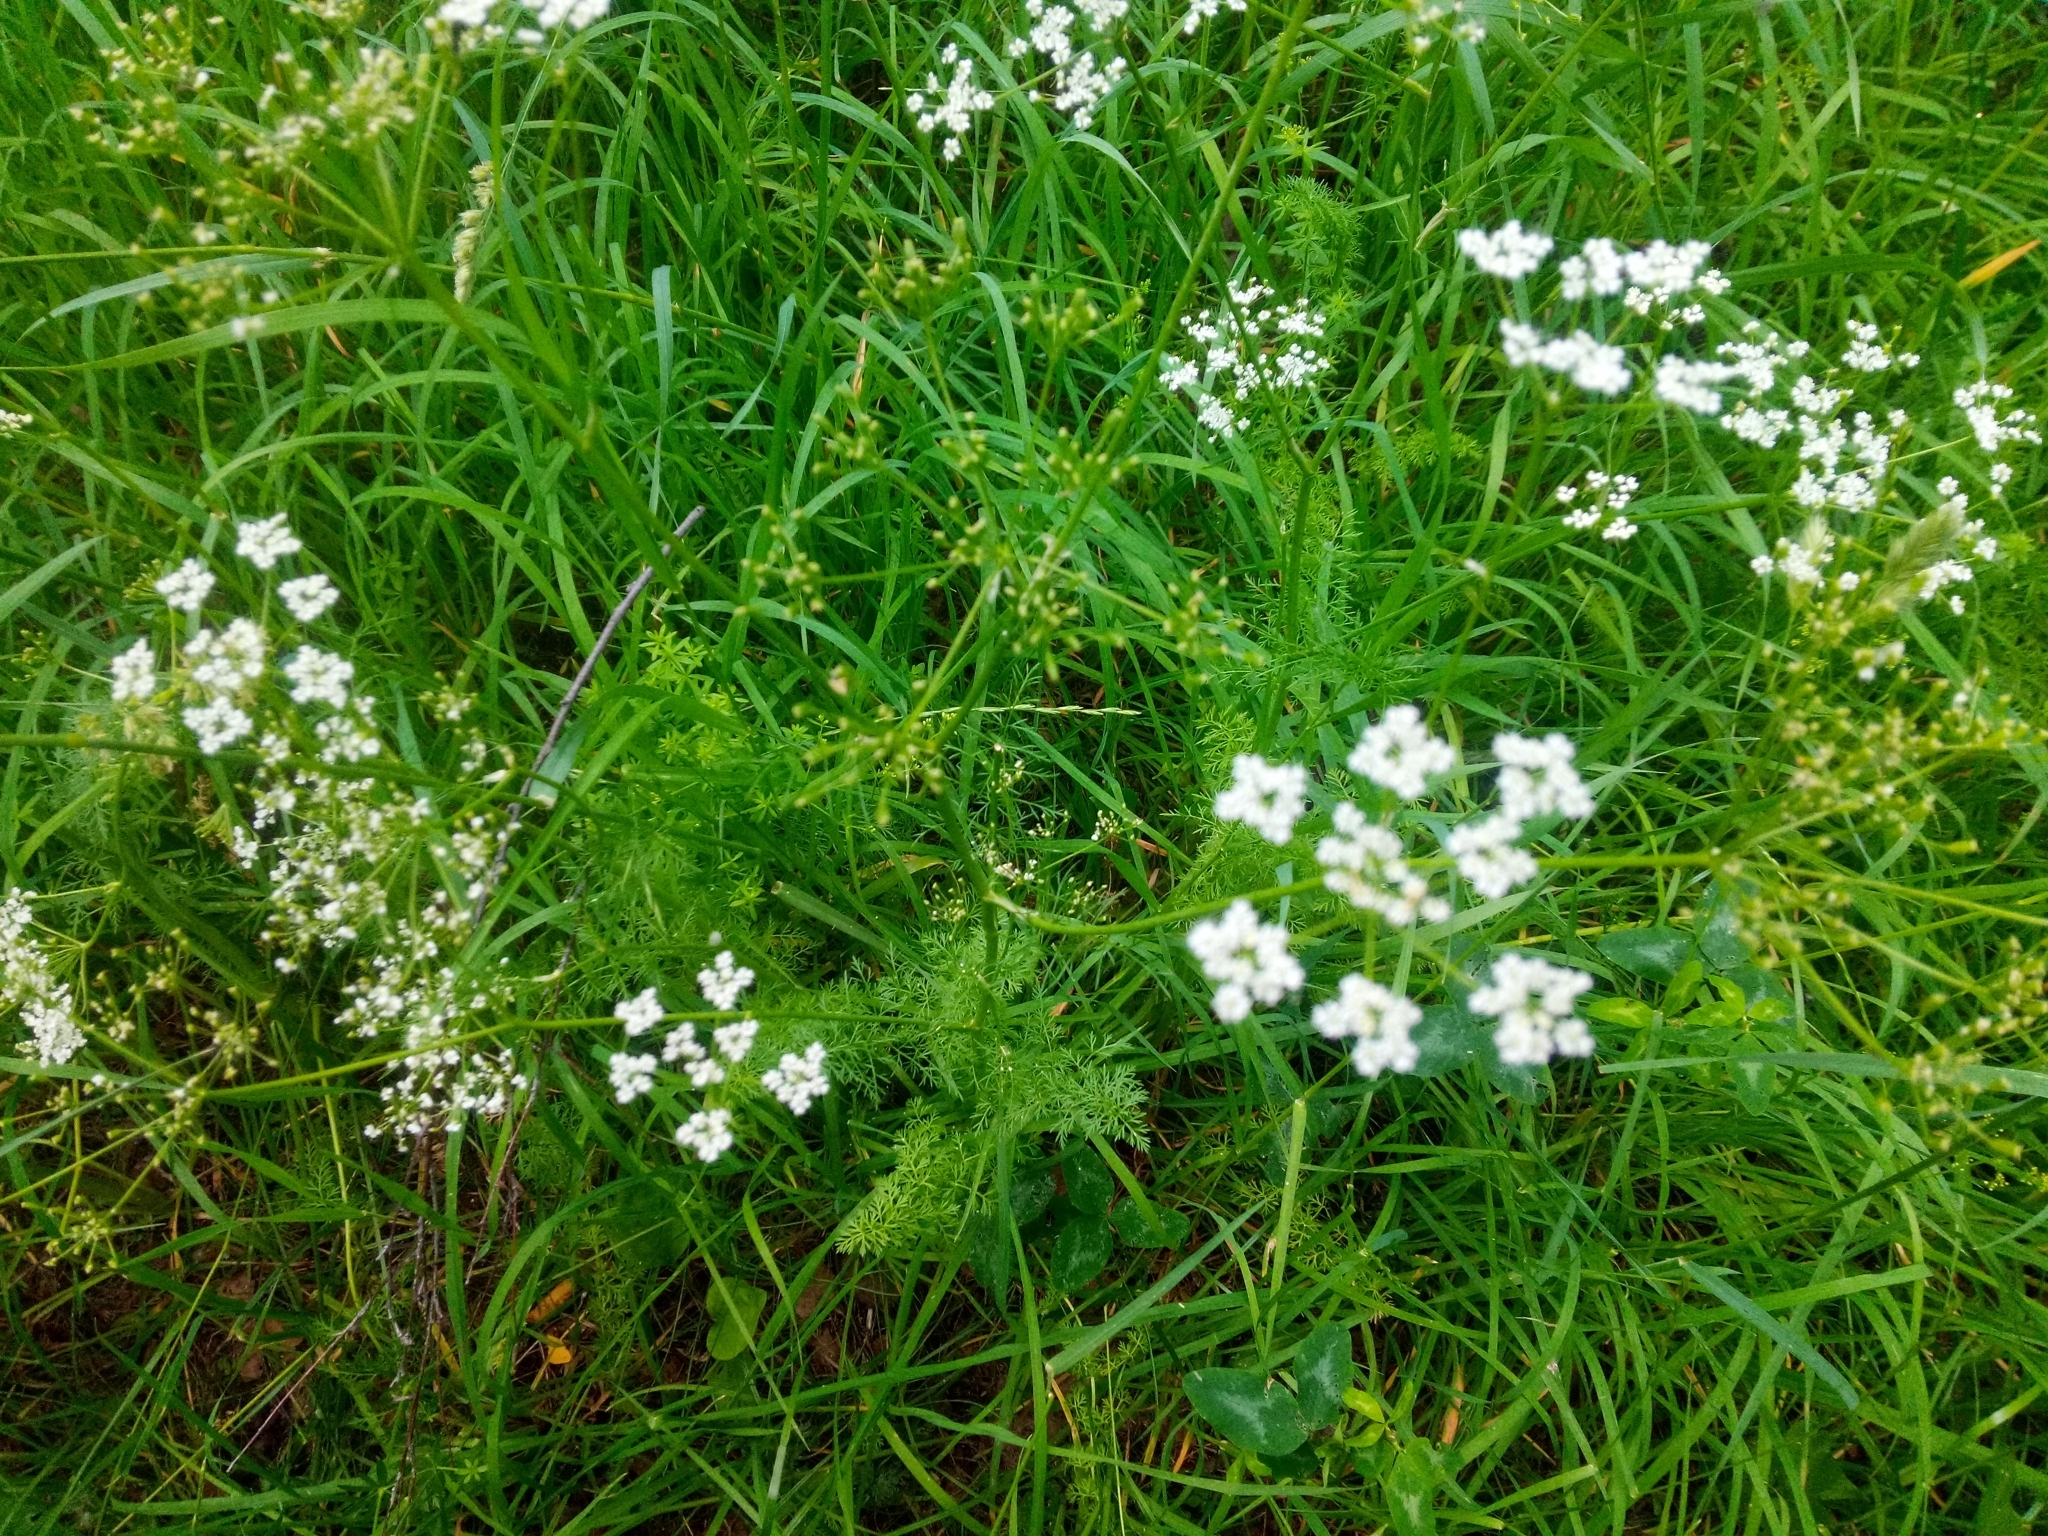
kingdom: Plantae
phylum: Tracheophyta
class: Magnoliopsida
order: Apiales
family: Apiaceae
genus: Carum
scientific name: Carum carvi
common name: Caraway
